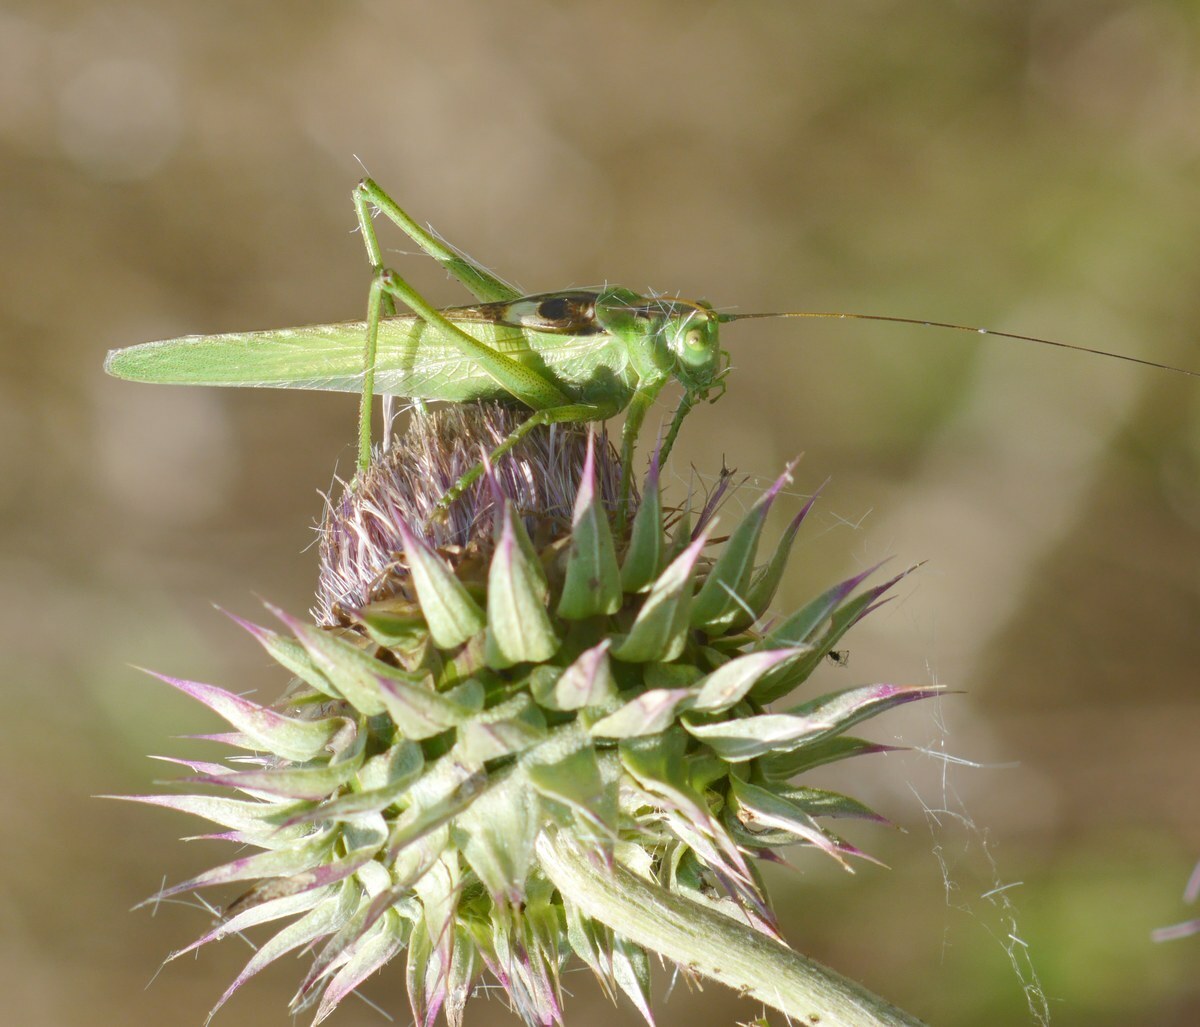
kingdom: Animalia
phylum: Arthropoda
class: Insecta
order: Orthoptera
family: Tettigoniidae
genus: Tettigonia
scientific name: Tettigonia viridissima
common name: Great green bush-cricket
